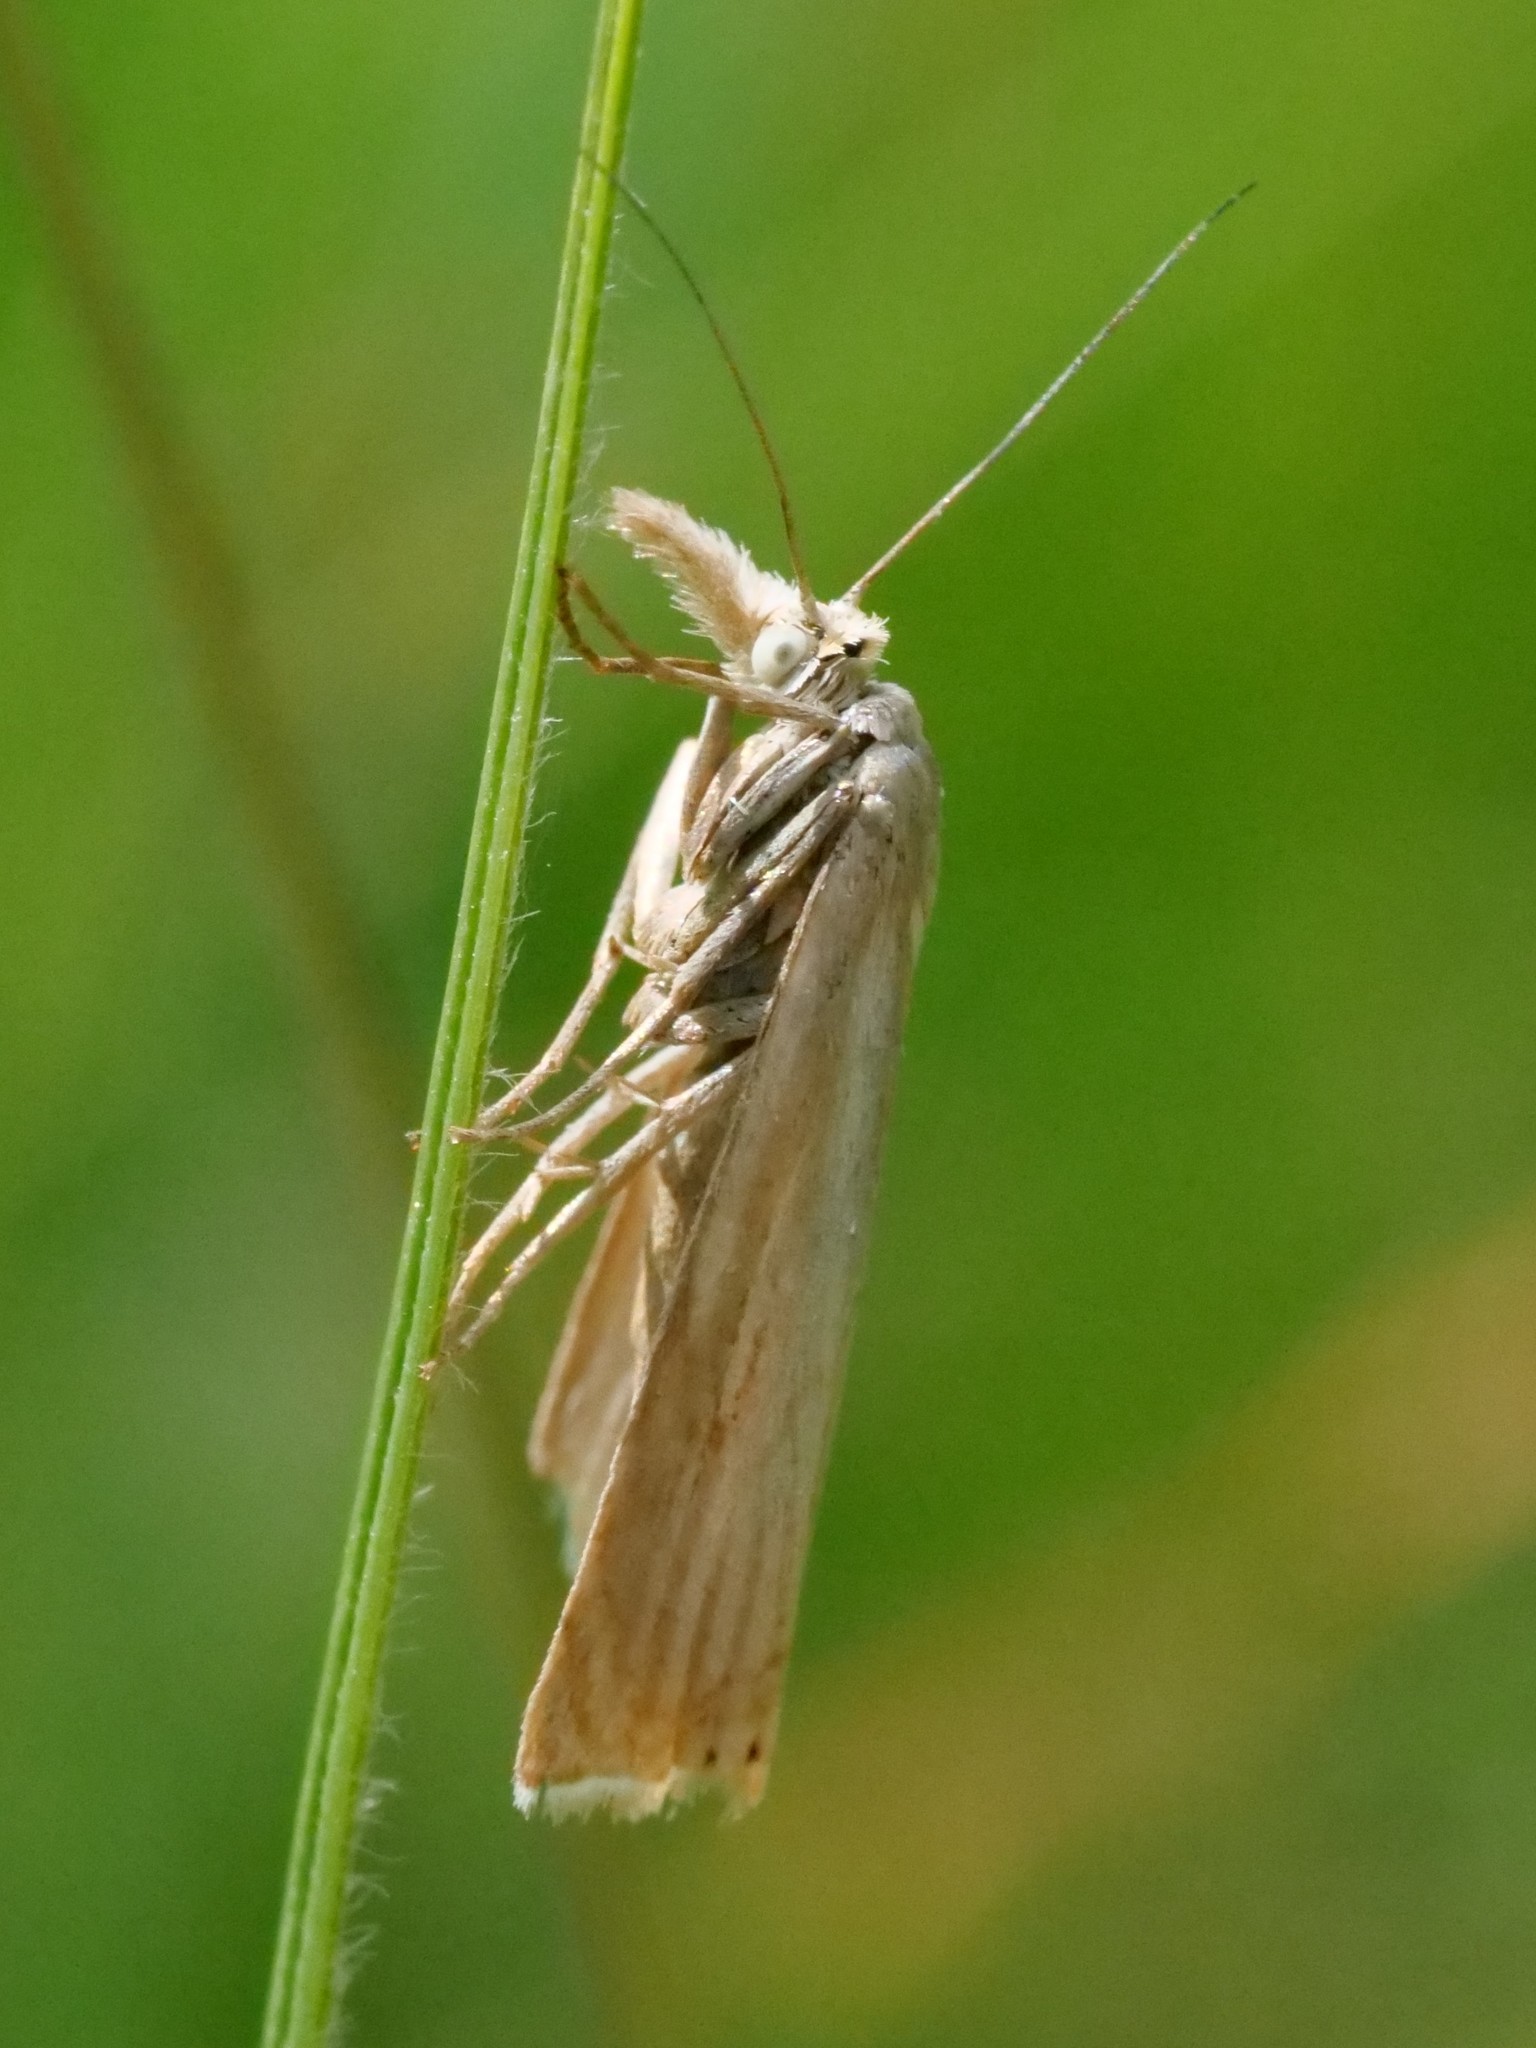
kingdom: Animalia
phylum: Arthropoda
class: Insecta
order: Lepidoptera
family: Crambidae
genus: Chrysoteuchia
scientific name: Chrysoteuchia culmella
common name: Garden grass-veneer
